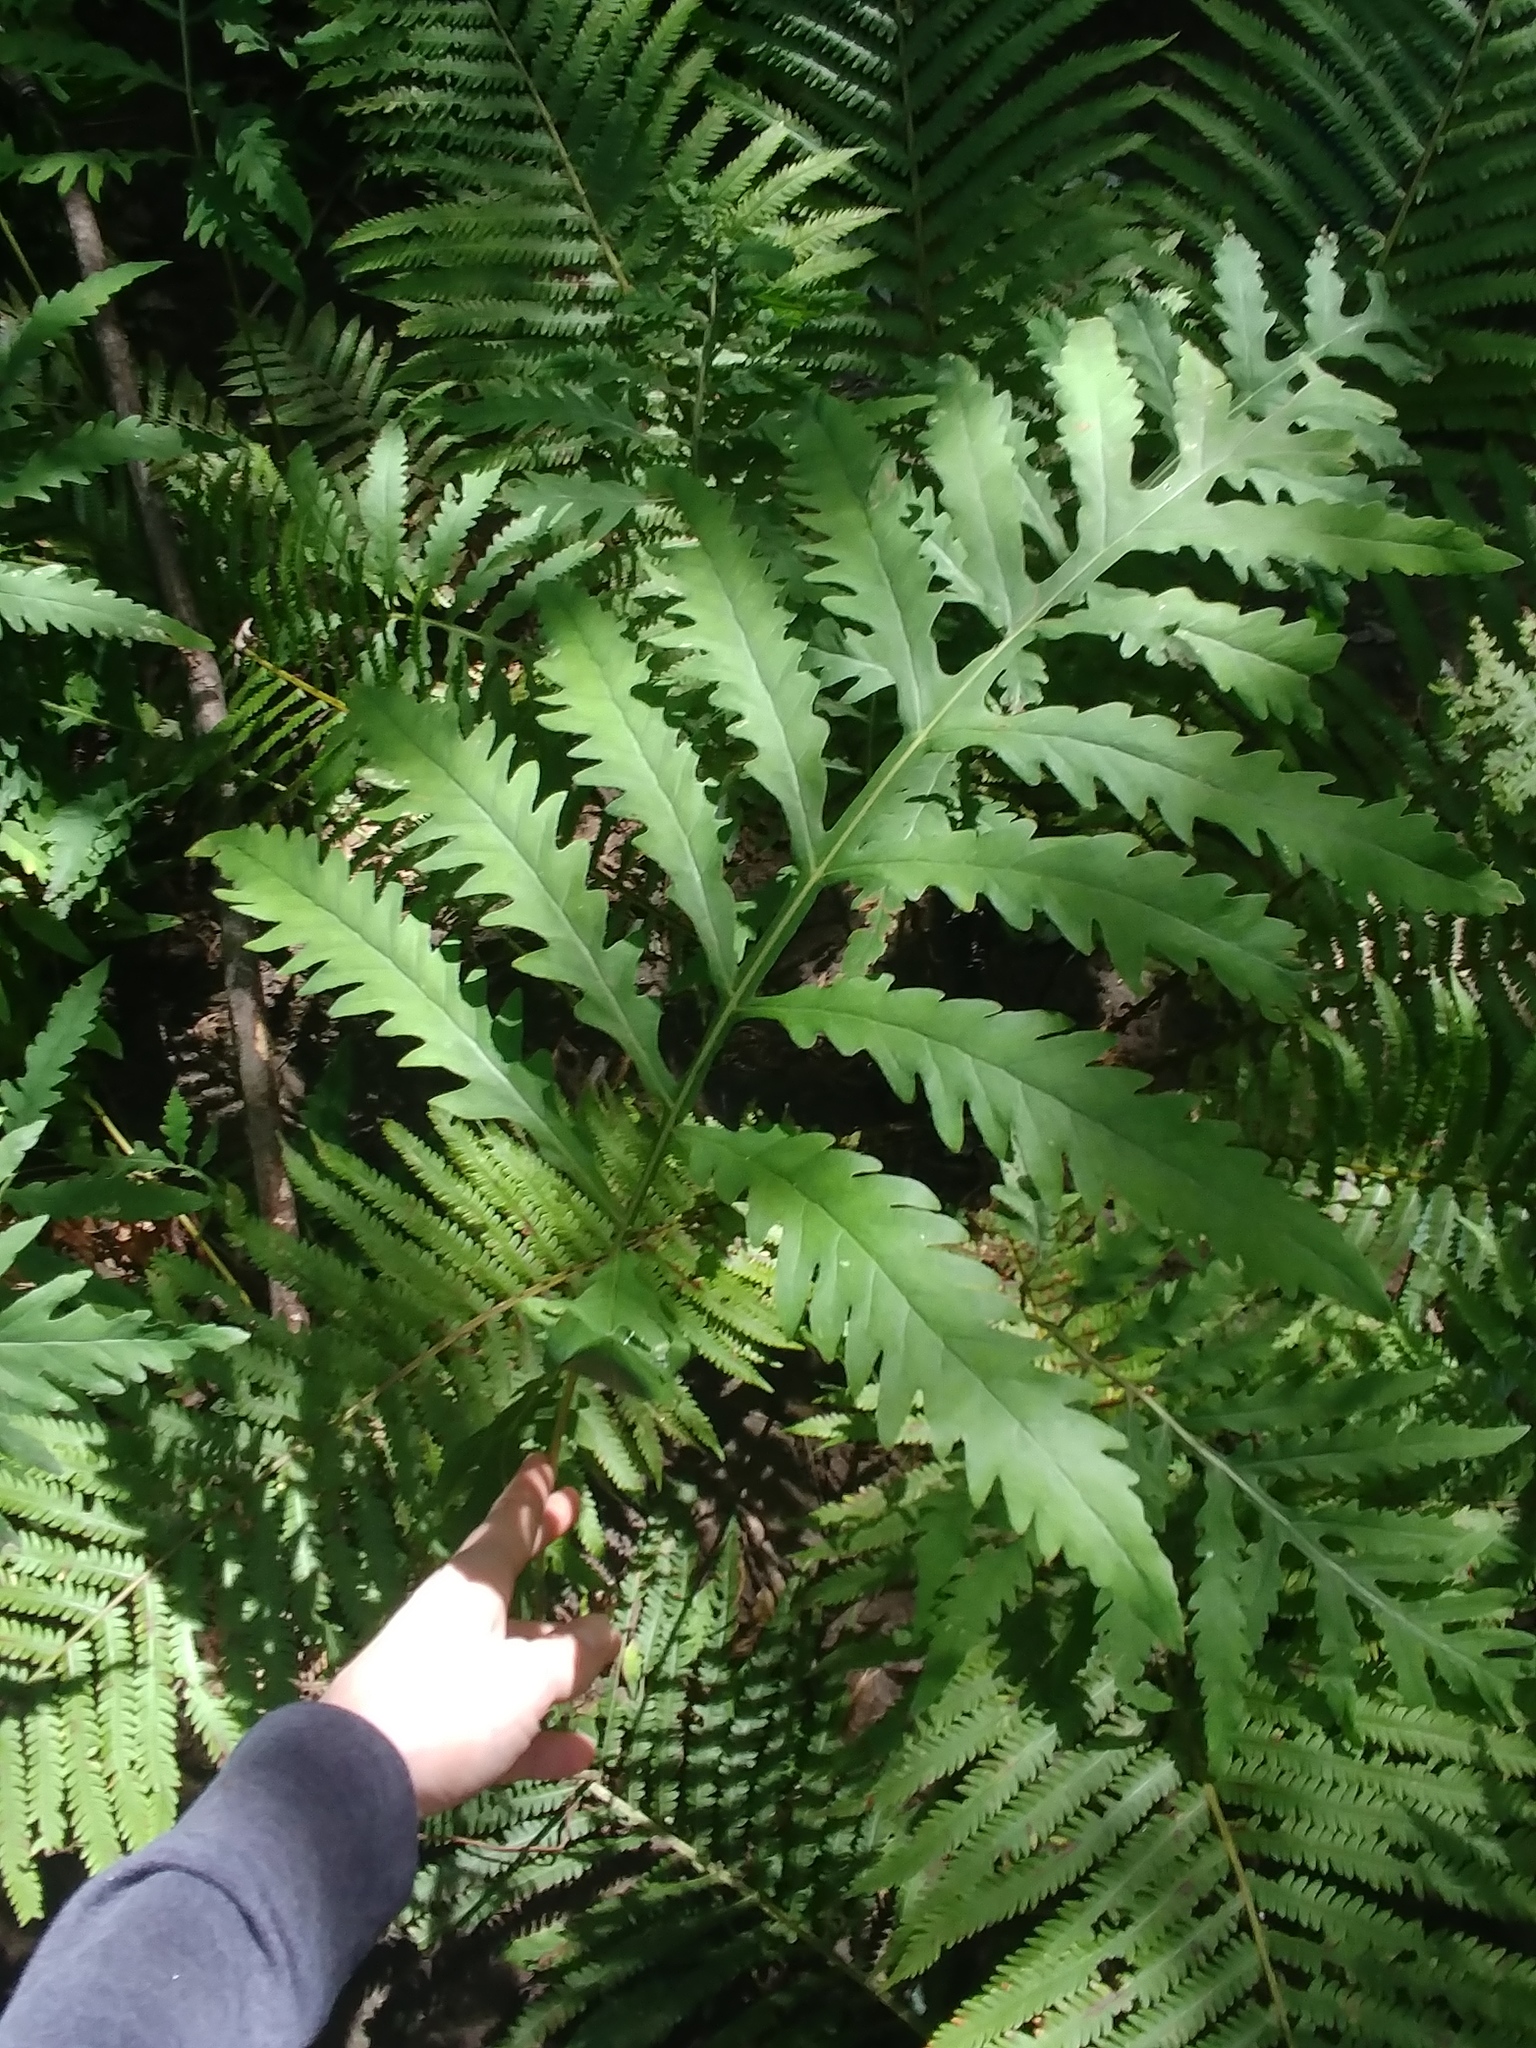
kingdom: Plantae
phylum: Tracheophyta
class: Polypodiopsida
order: Polypodiales
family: Onocleaceae
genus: Onoclea
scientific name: Onoclea sensibilis
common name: Sensitive fern
